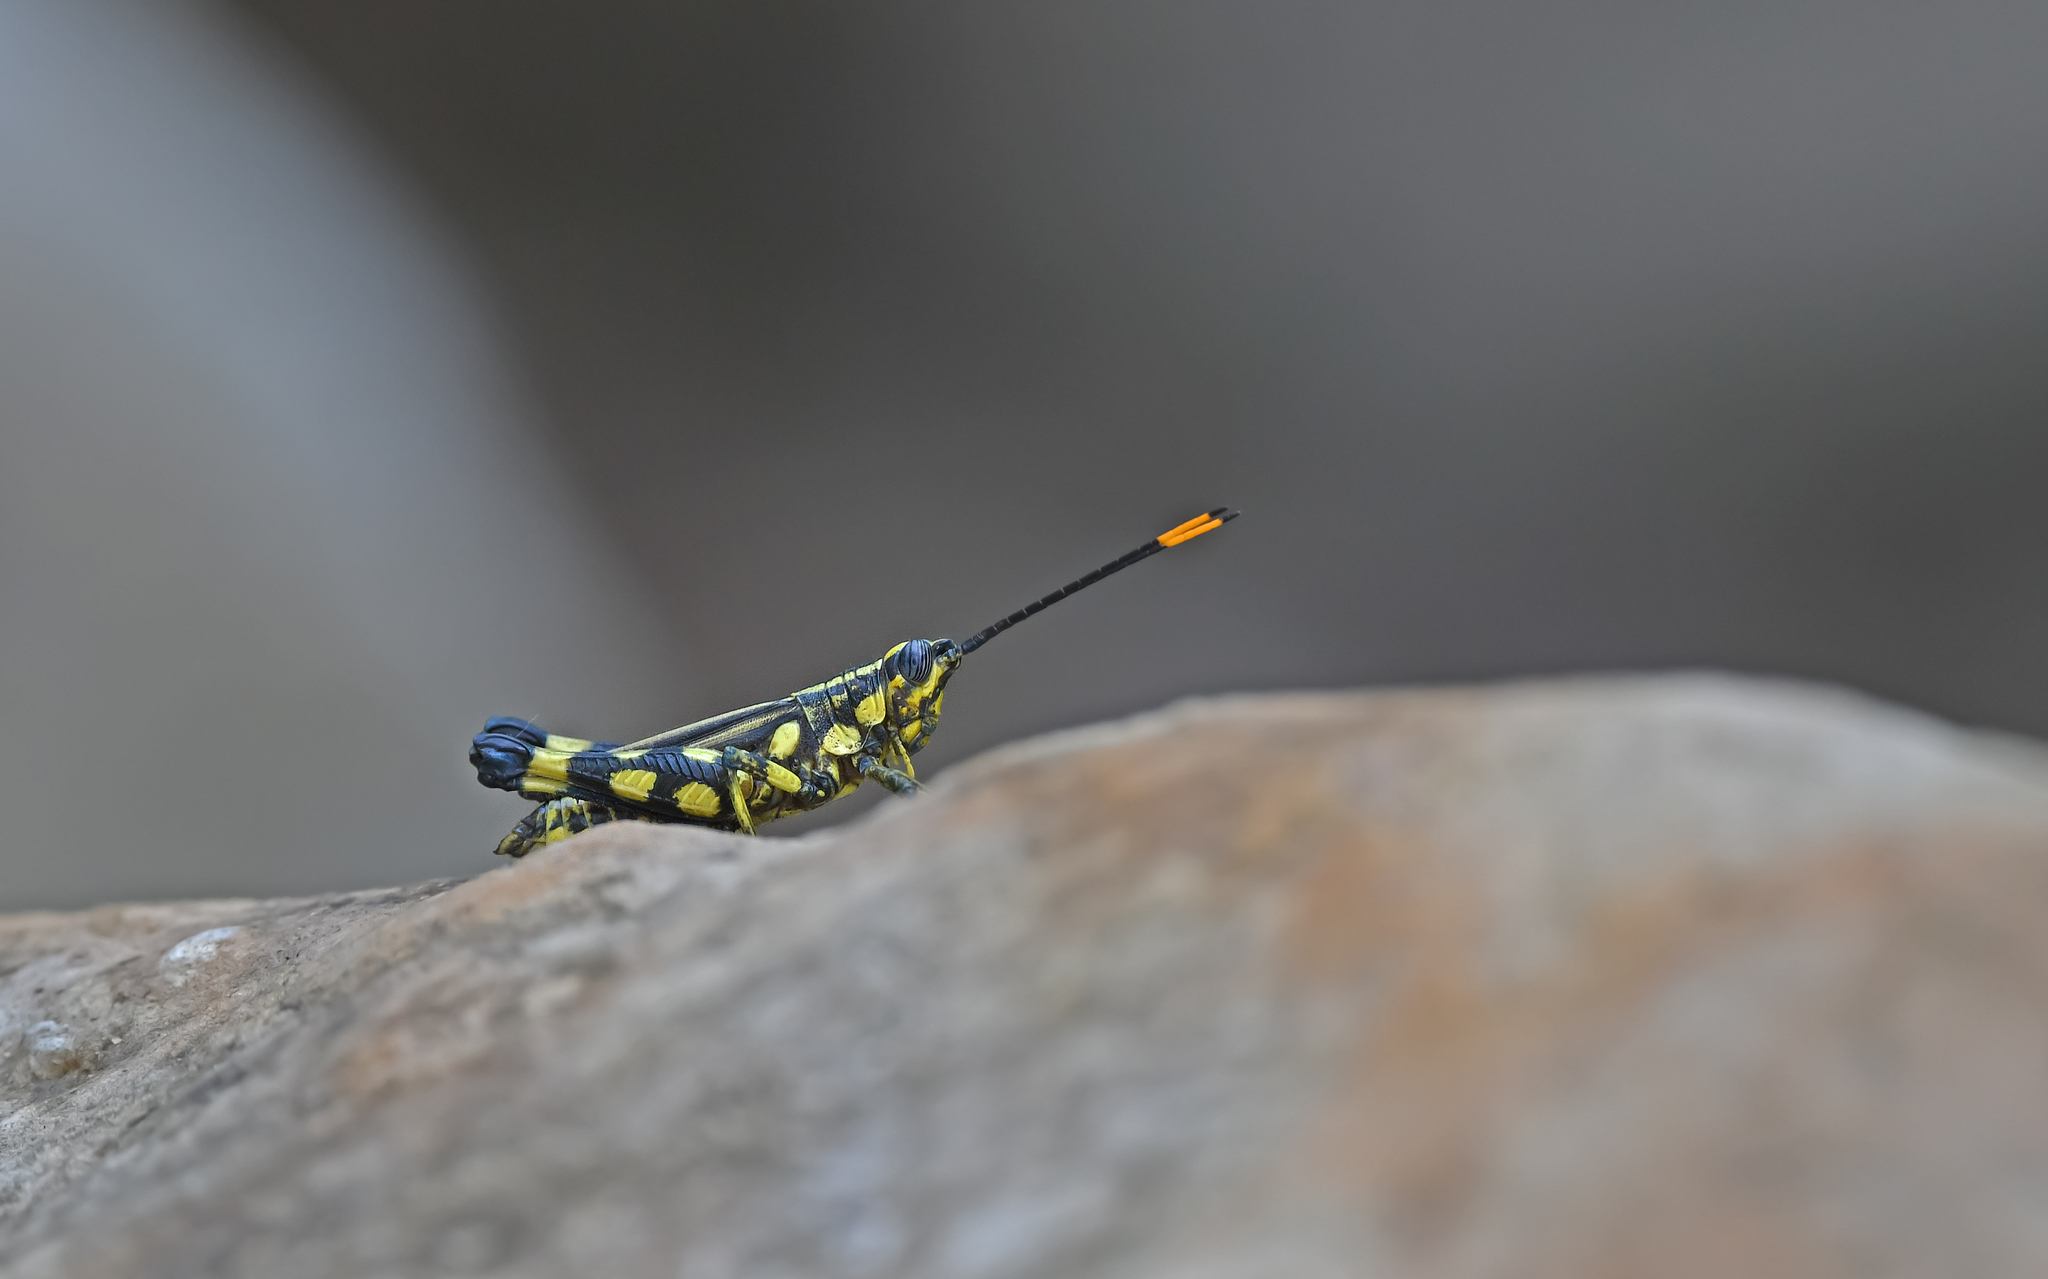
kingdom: Animalia
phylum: Arthropoda
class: Insecta
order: Orthoptera
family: Acrididae
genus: Rhopsotettix
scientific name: Rhopsotettix consummatus
